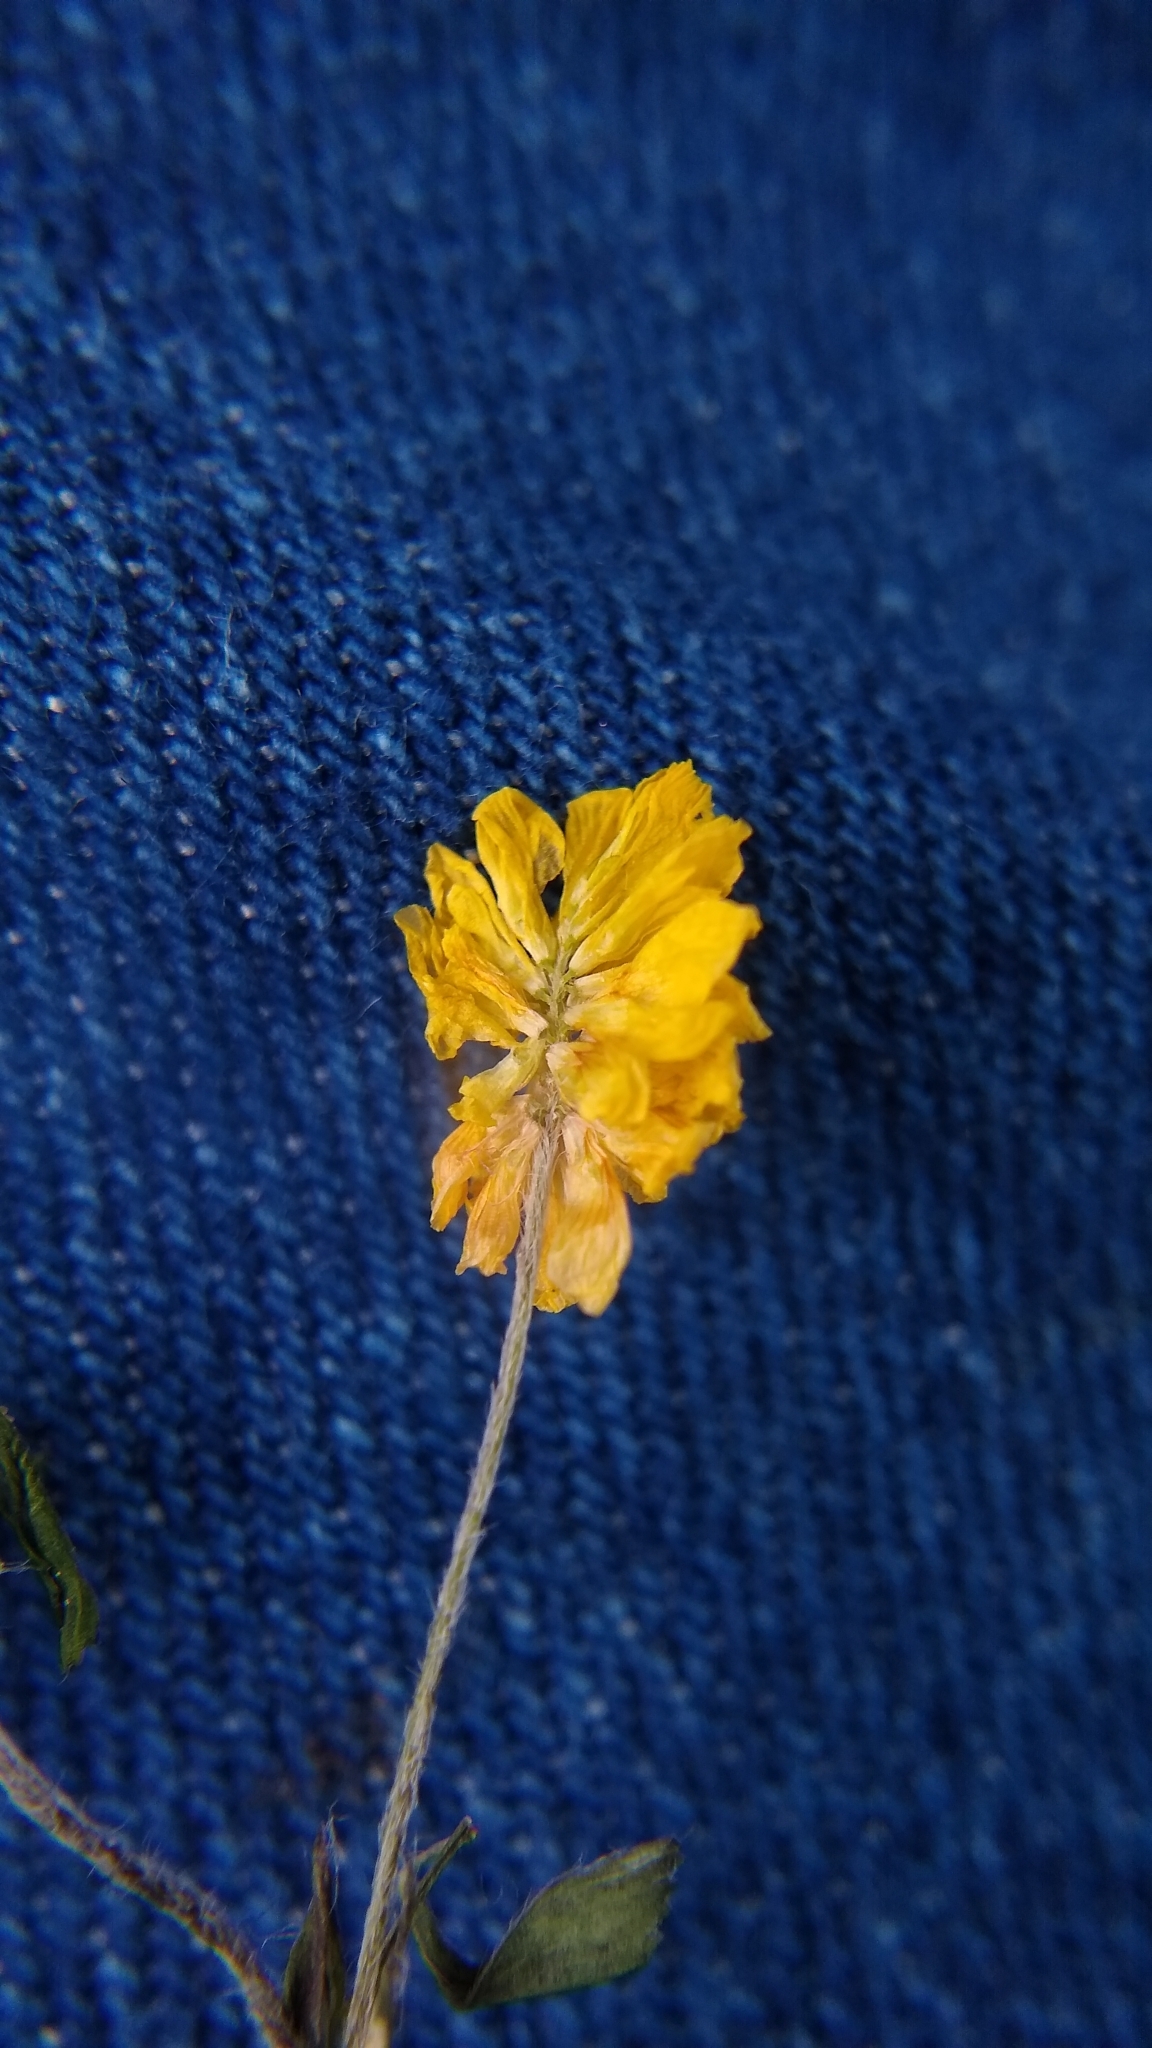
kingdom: Plantae
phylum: Tracheophyta
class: Magnoliopsida
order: Fabales
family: Fabaceae
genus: Trifolium
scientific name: Trifolium campestre
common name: Field clover
